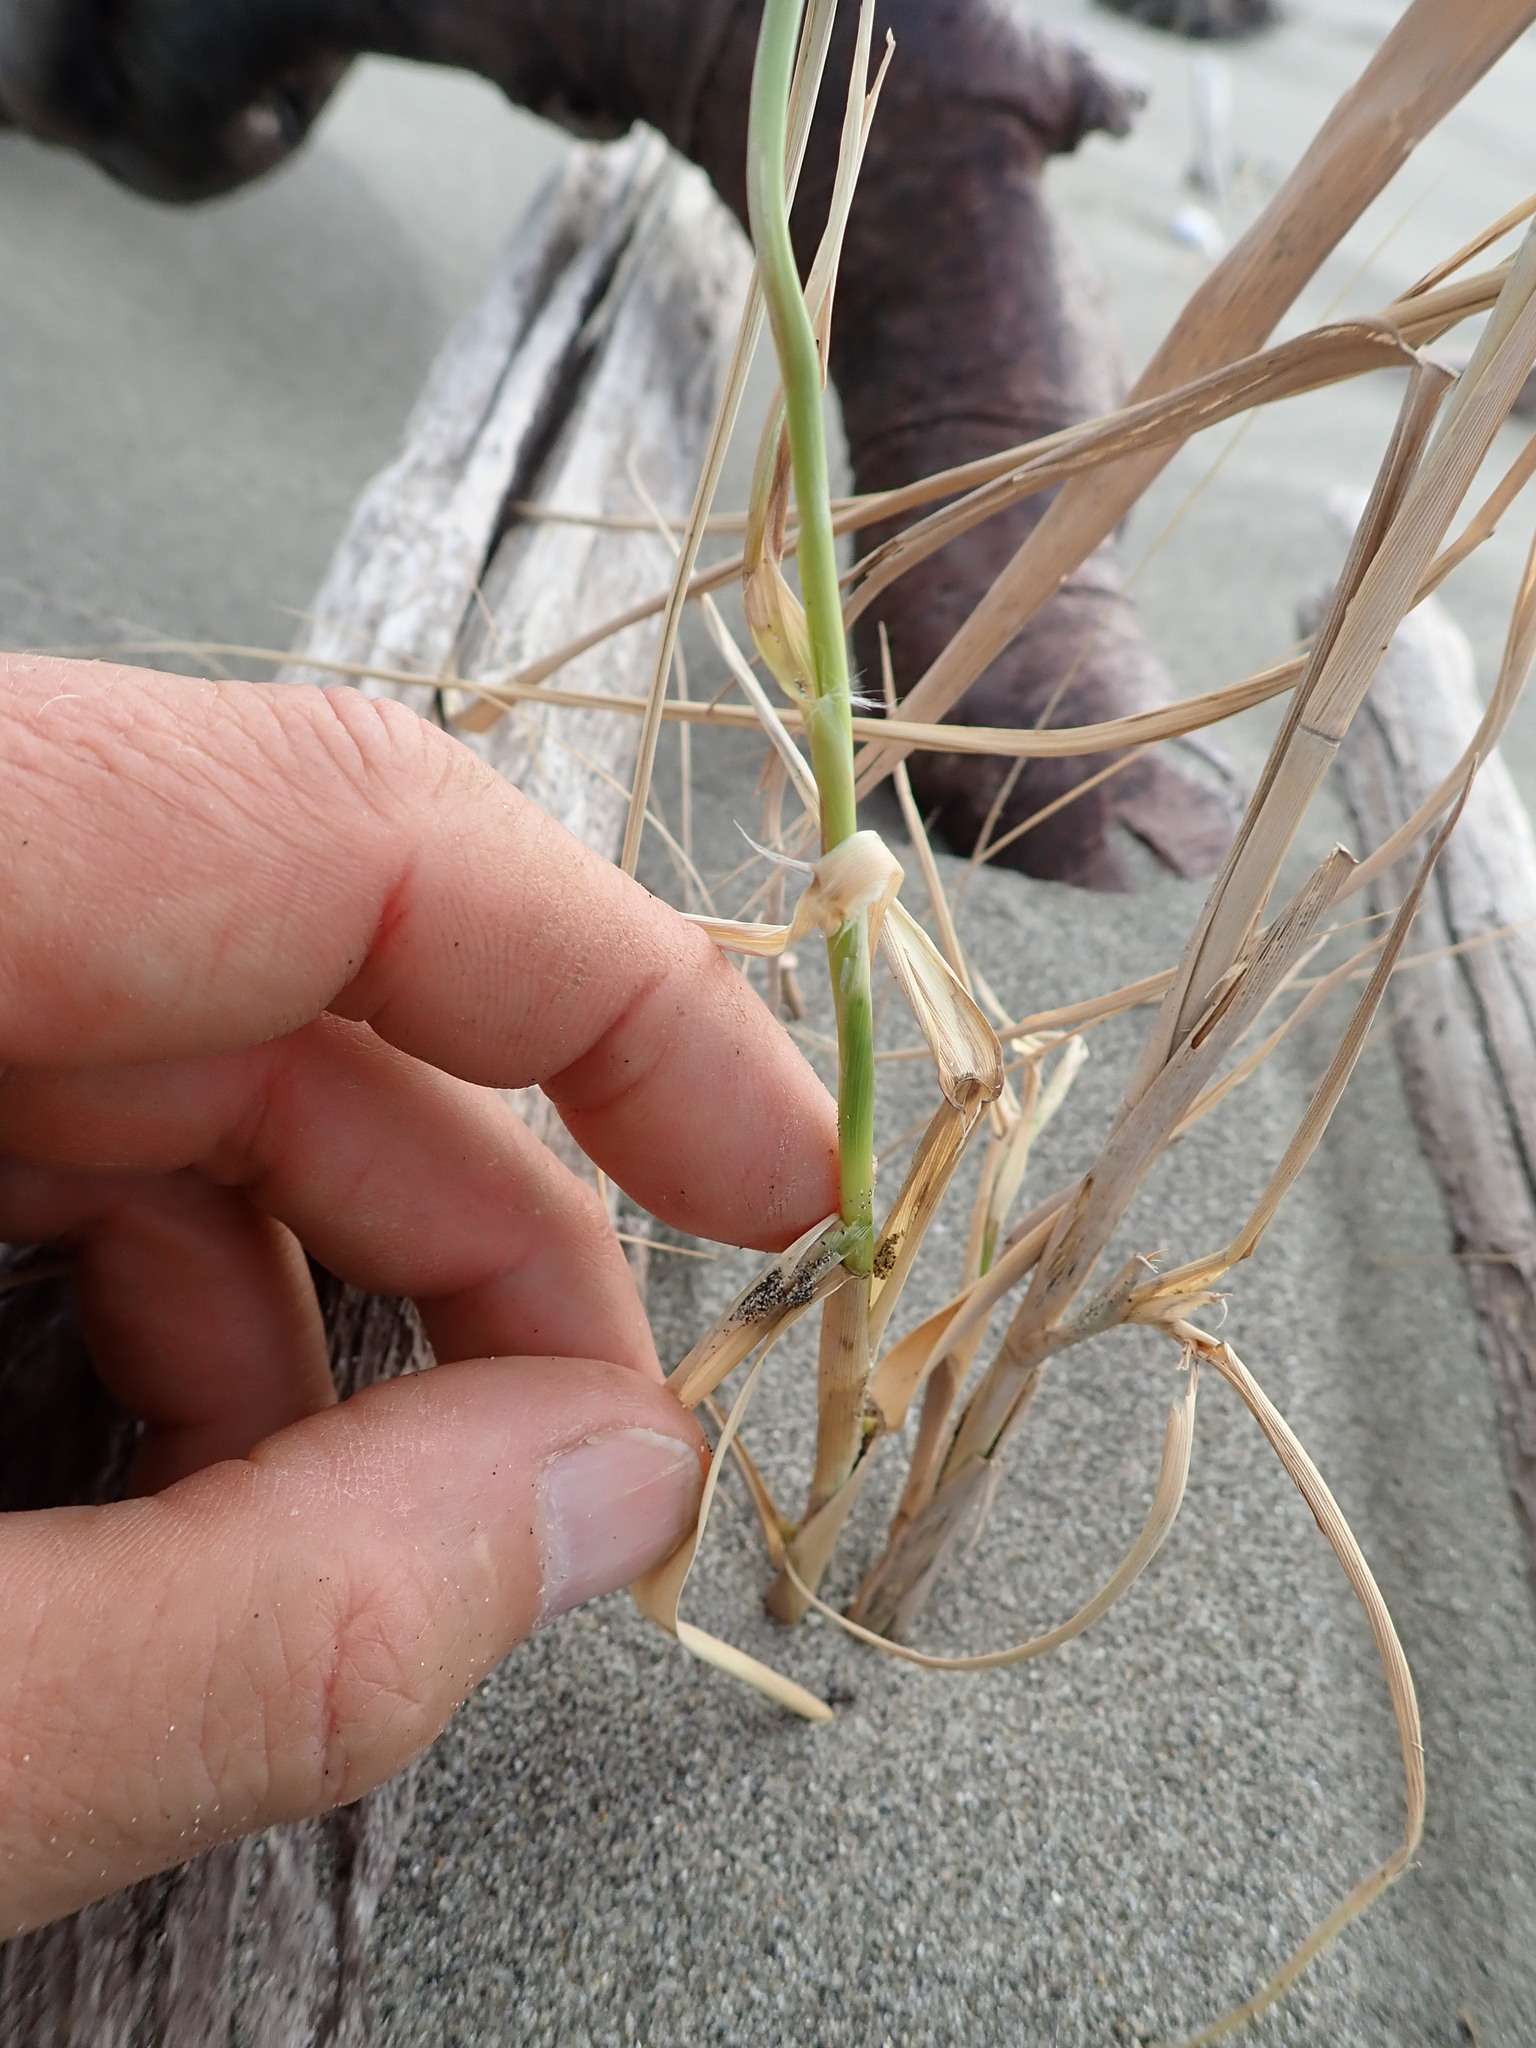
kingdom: Plantae
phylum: Tracheophyta
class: Liliopsida
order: Poales
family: Poaceae
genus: Phragmites
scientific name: Phragmites karka
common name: Tropical reed
